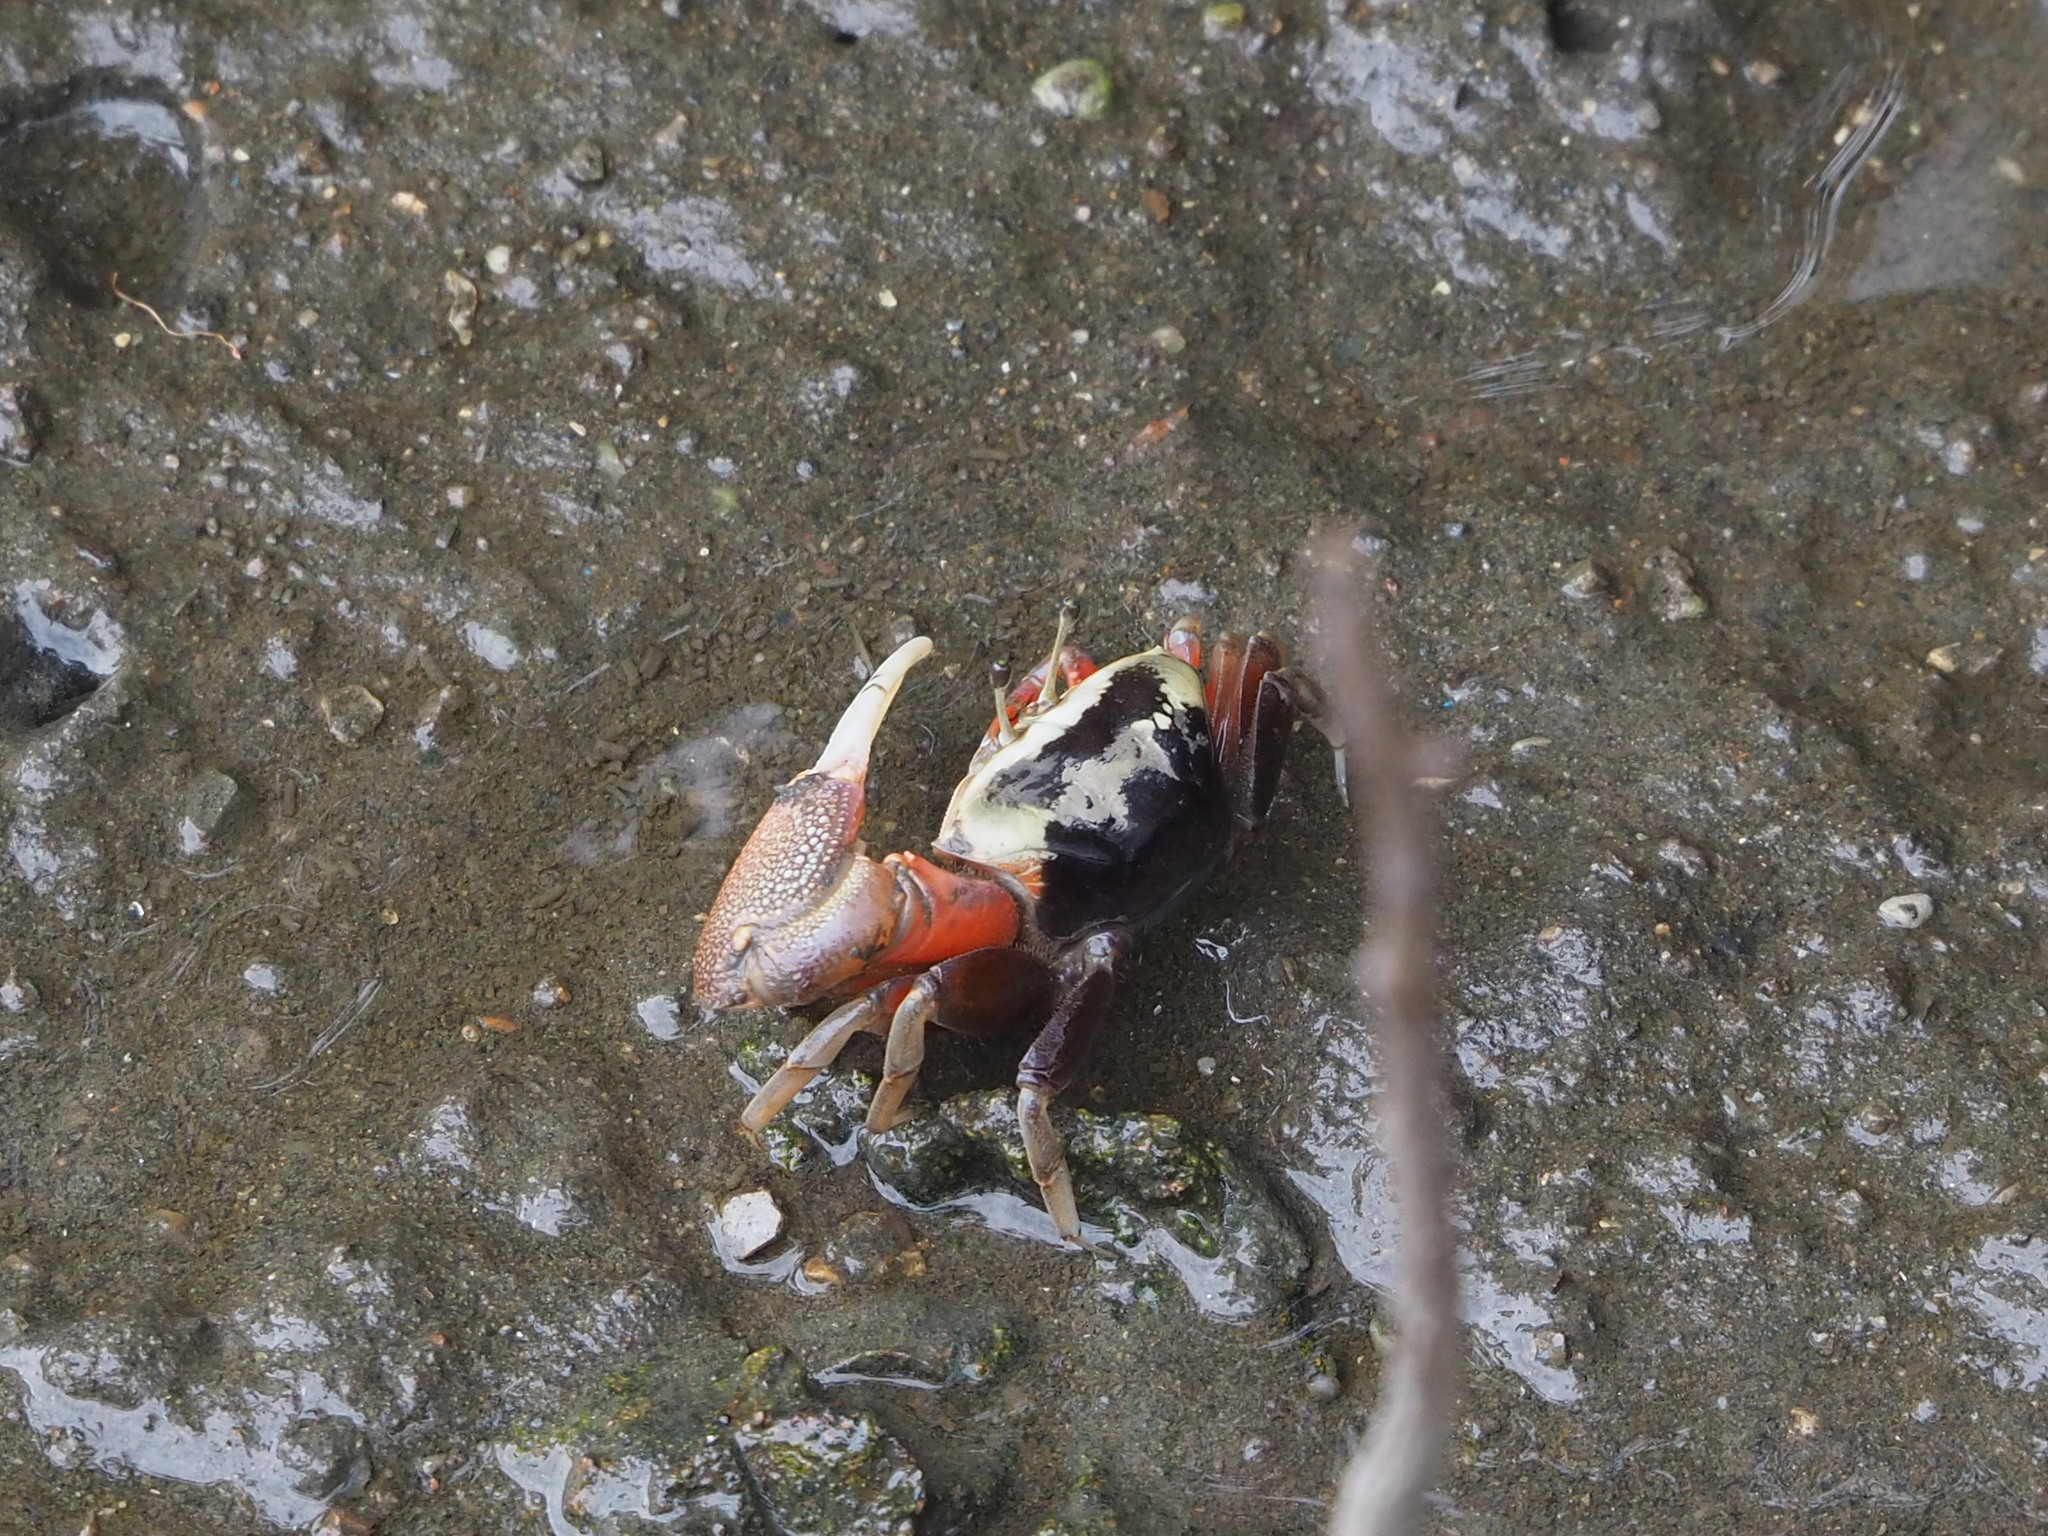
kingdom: Animalia
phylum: Arthropoda
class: Malacostraca
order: Decapoda
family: Ocypodidae
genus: Tubuca
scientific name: Tubuca arcuata
